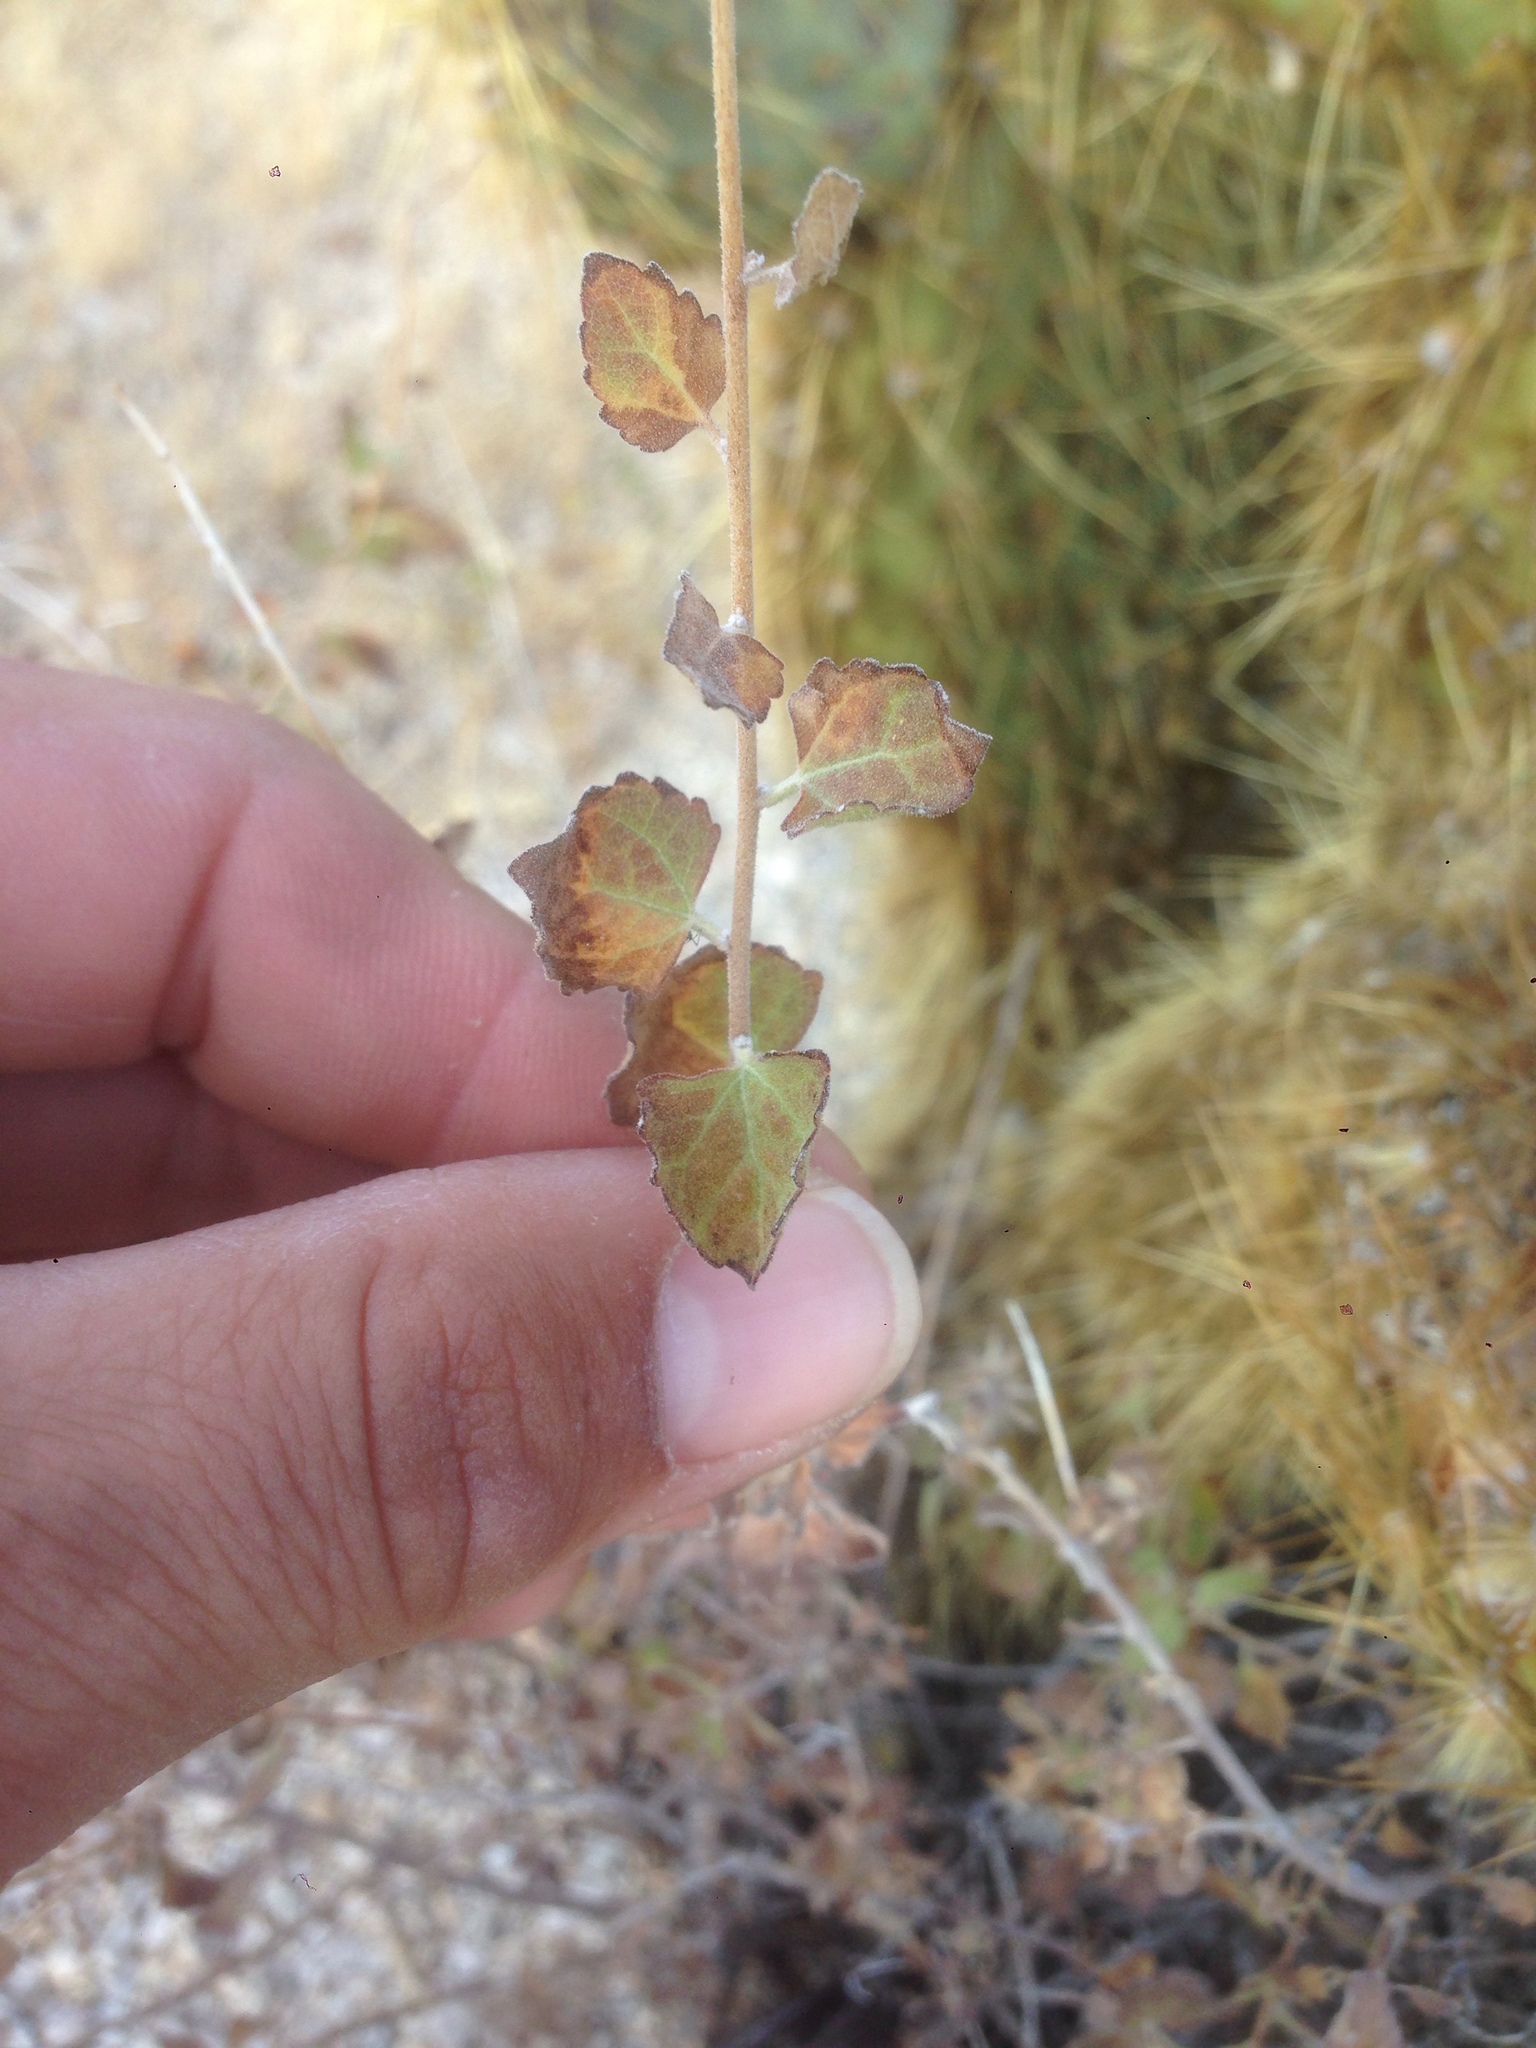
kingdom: Plantae
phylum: Tracheophyta
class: Magnoliopsida
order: Asterales
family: Asteraceae
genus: Brickellia
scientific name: Brickellia californica
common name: California brickellbush
